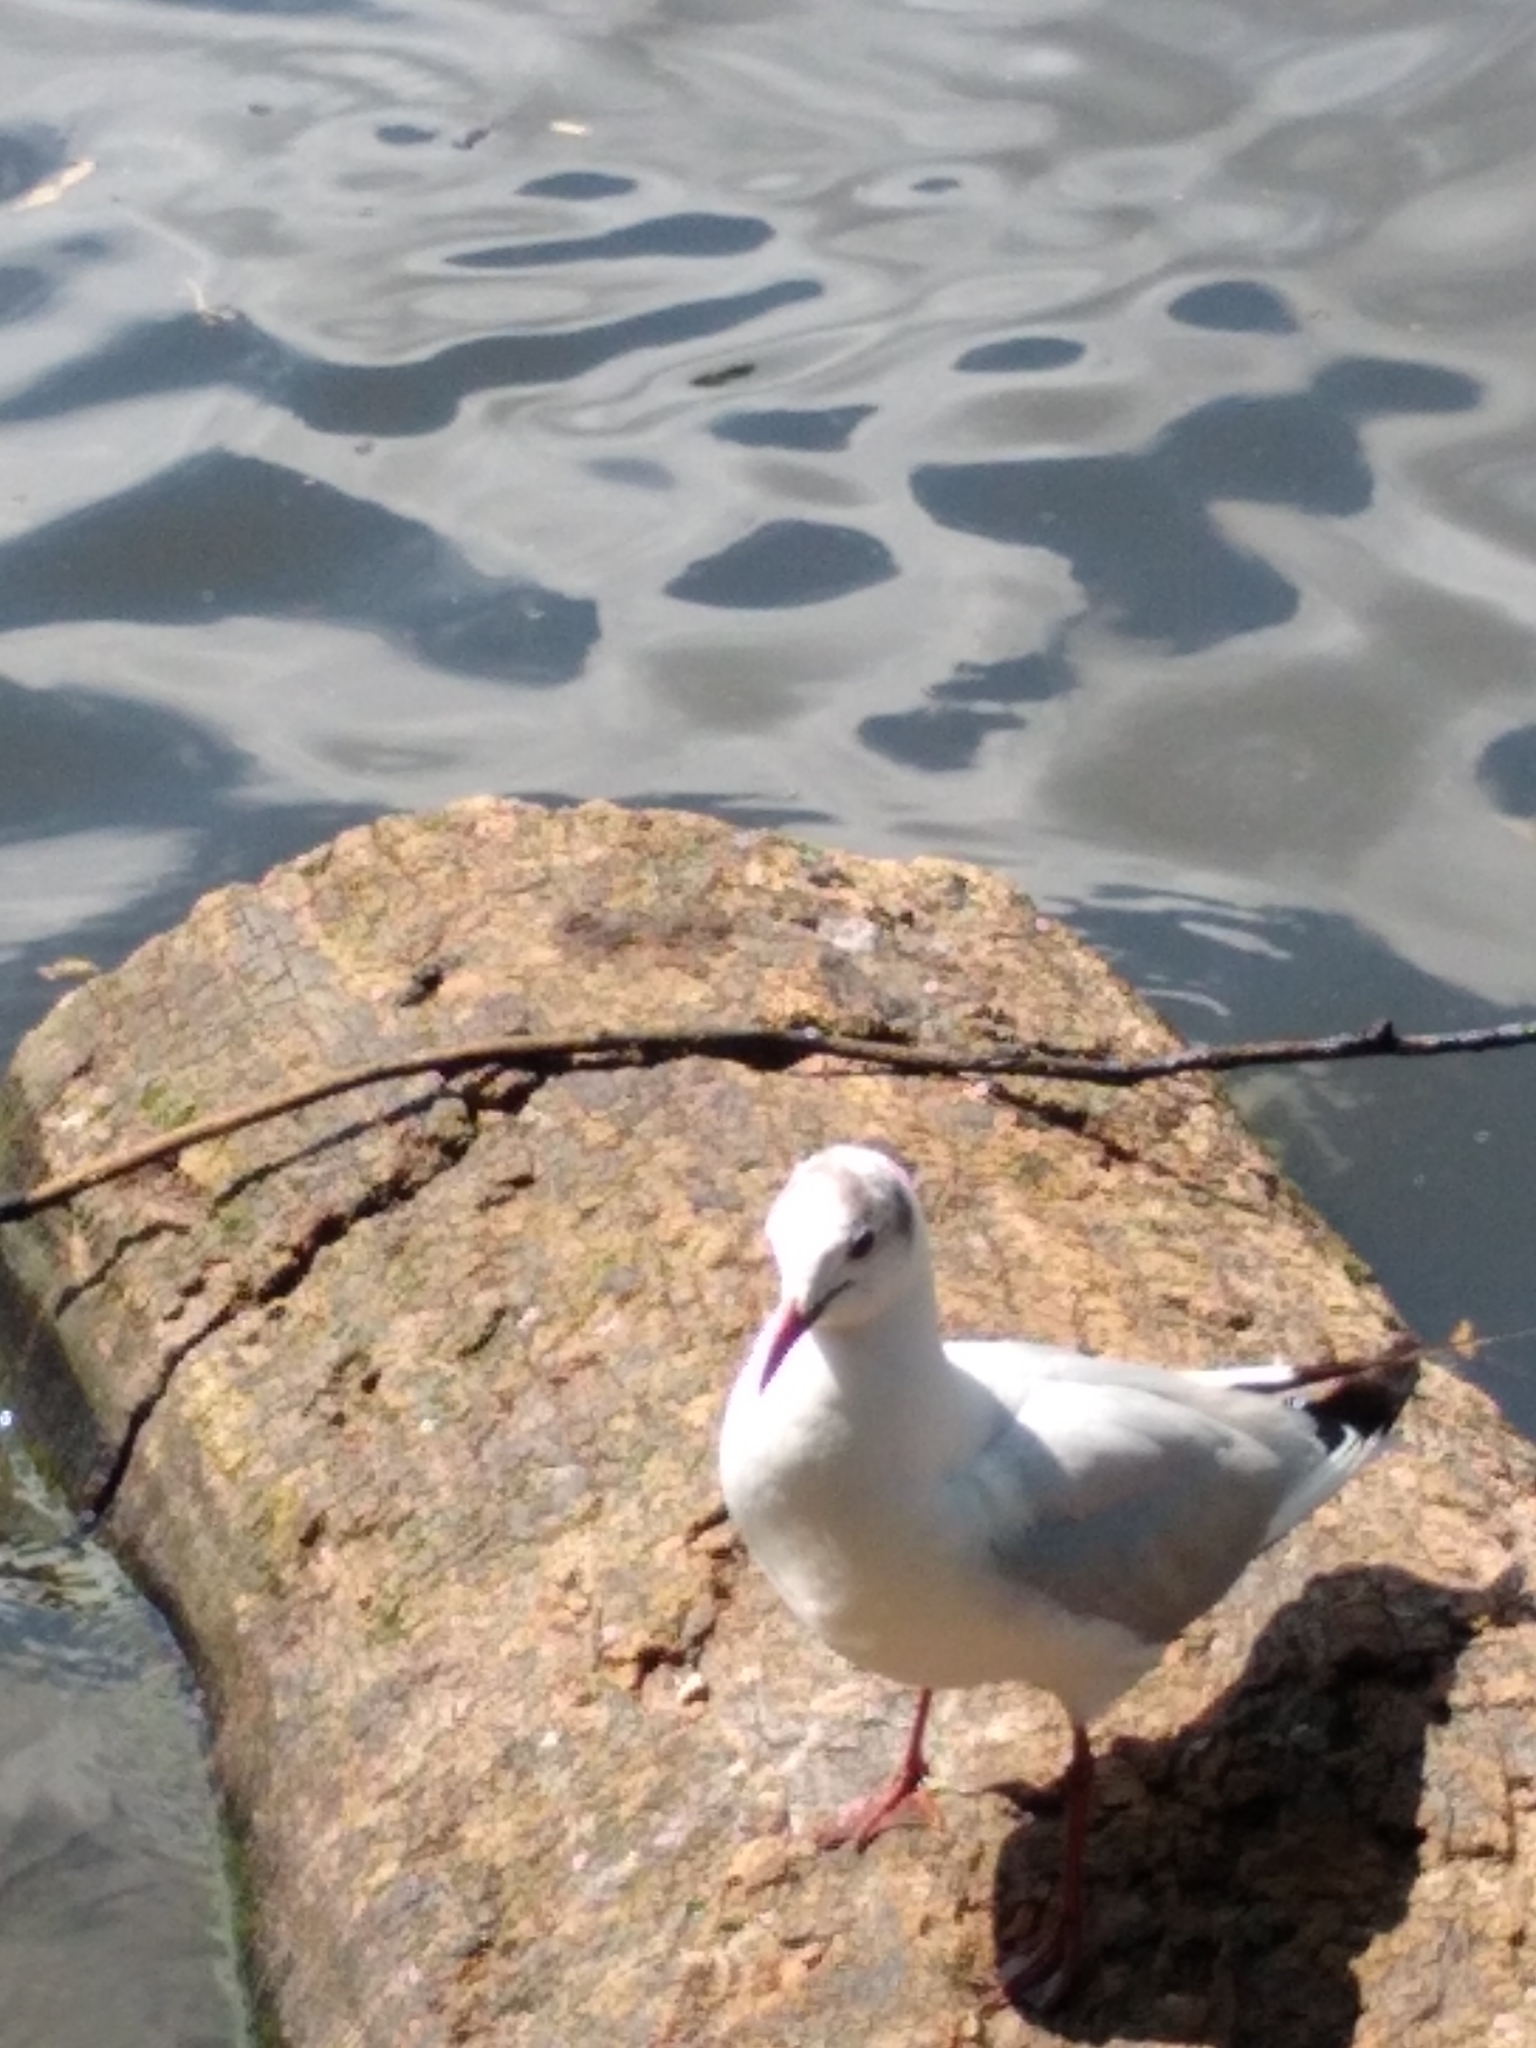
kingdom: Animalia
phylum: Chordata
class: Aves
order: Charadriiformes
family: Laridae
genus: Chroicocephalus
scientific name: Chroicocephalus ridibundus
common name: Black-headed gull
